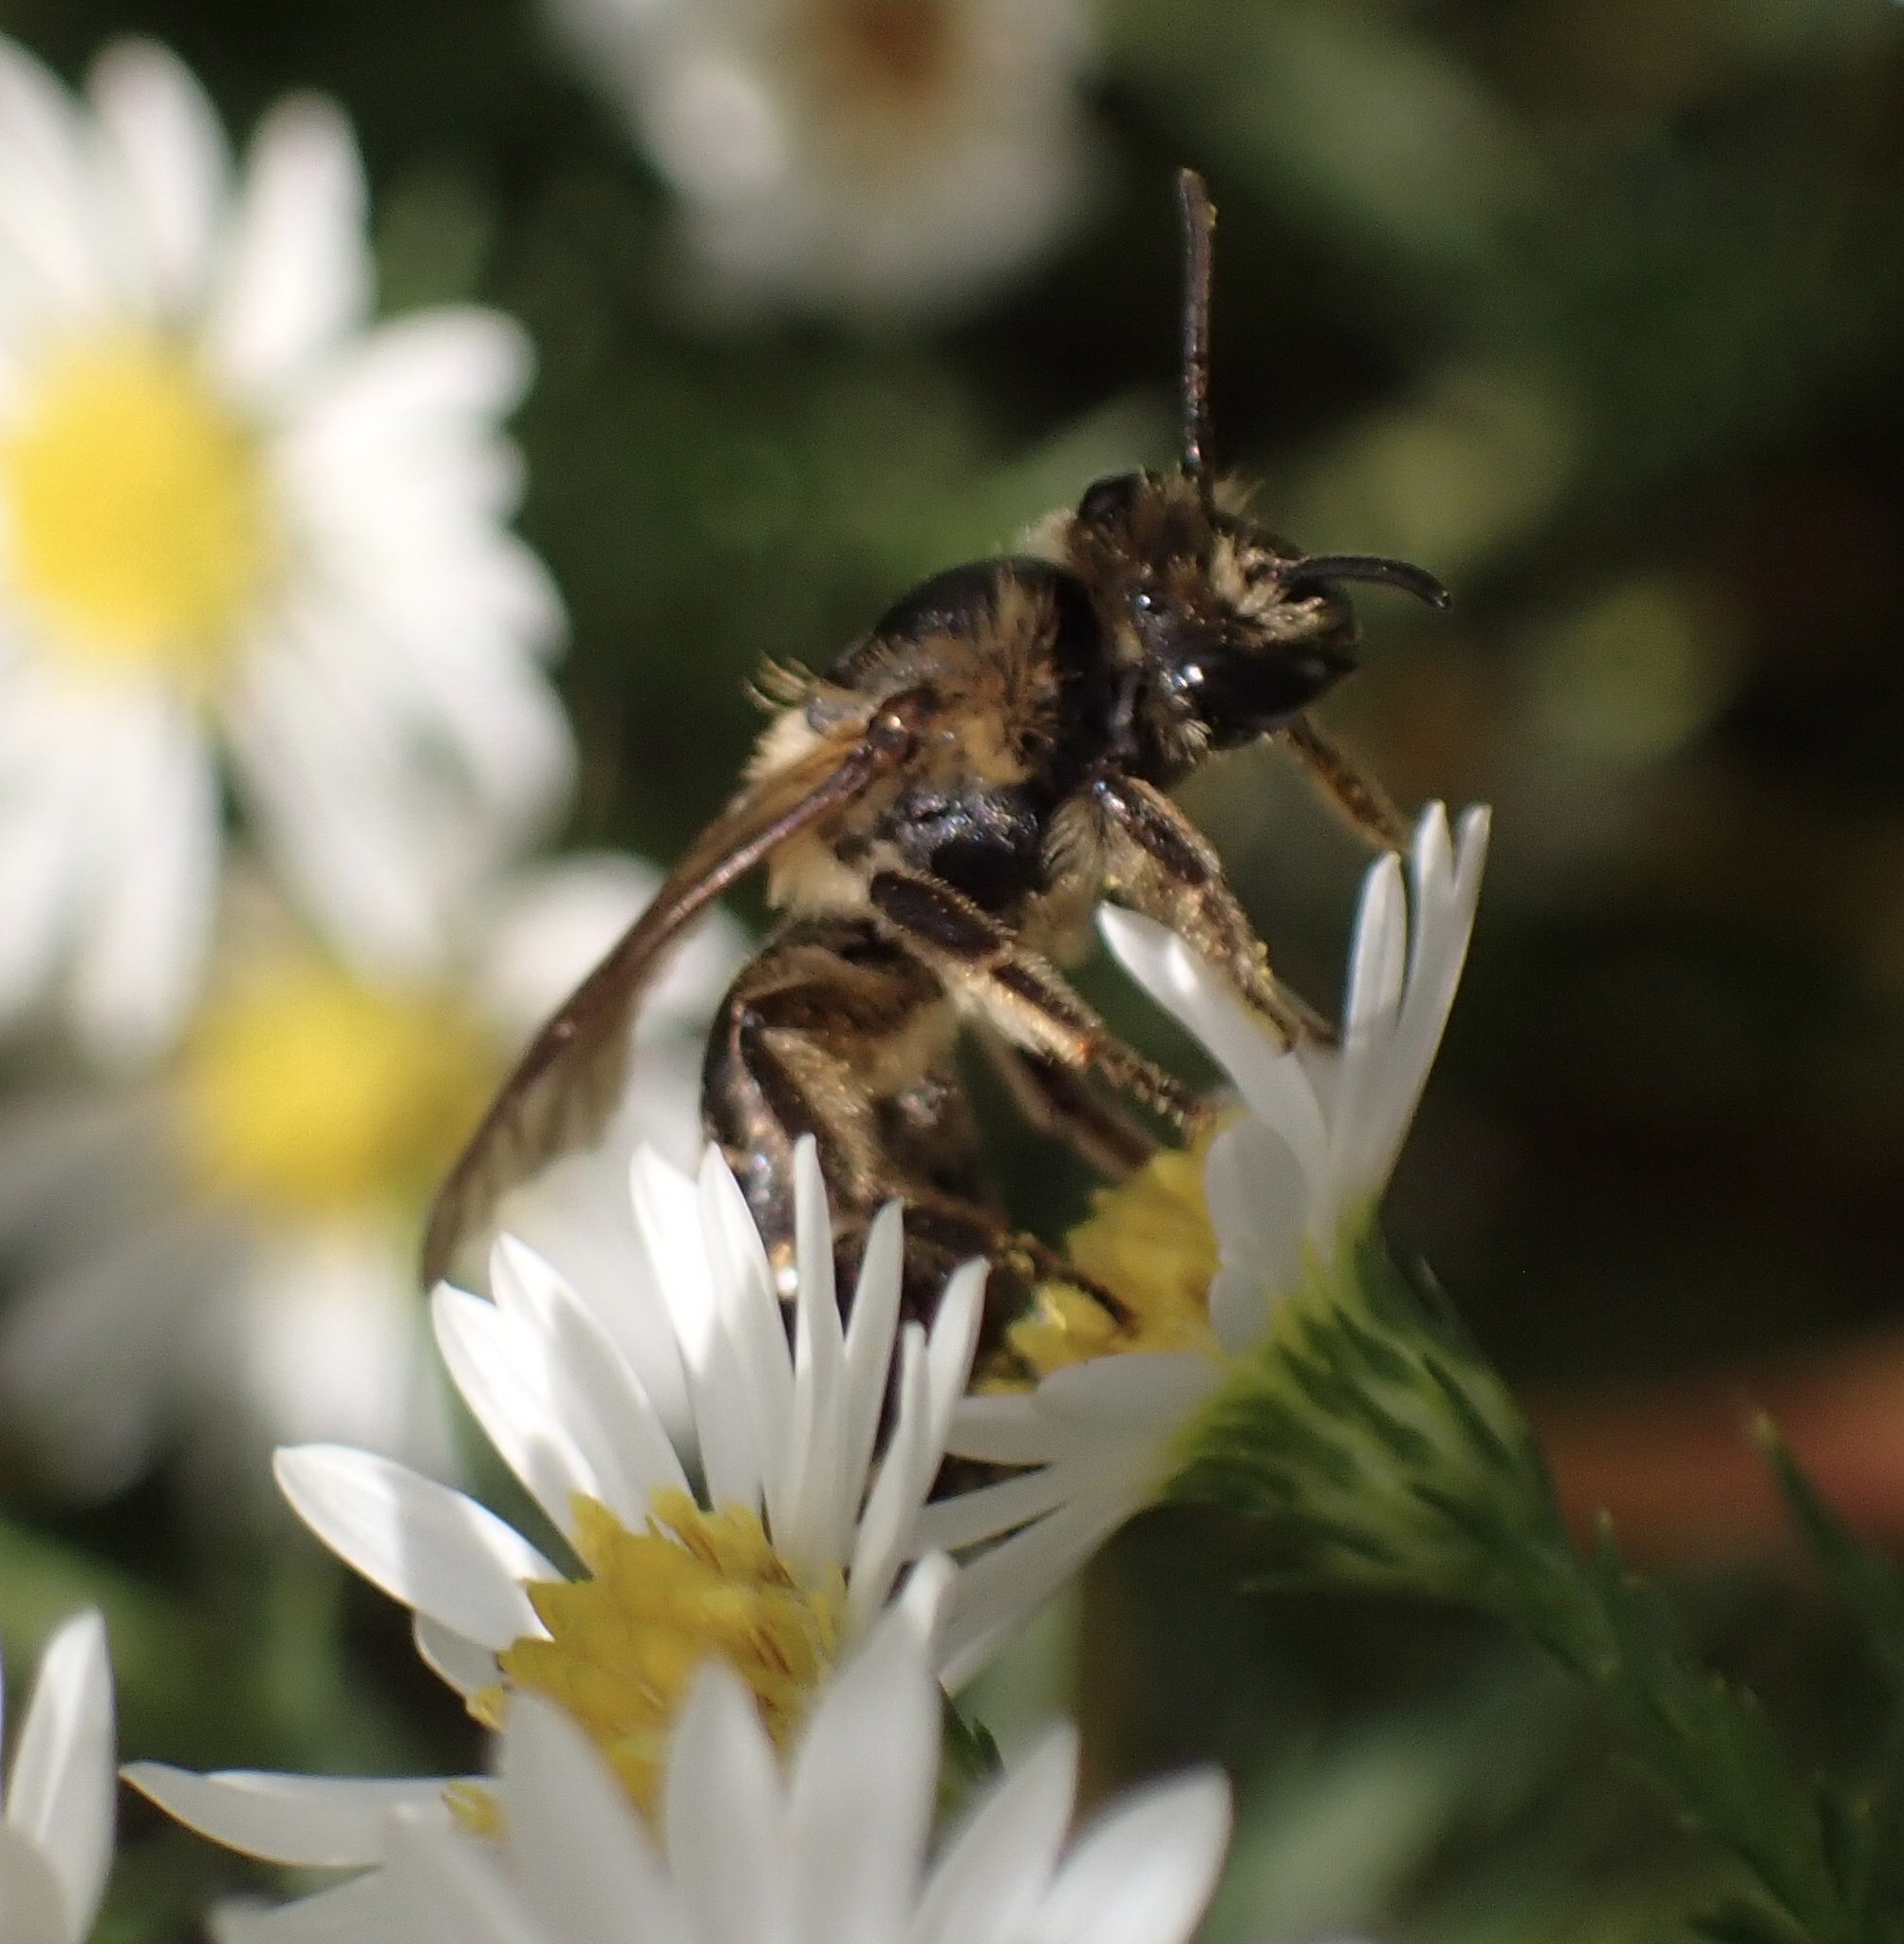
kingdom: Animalia
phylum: Arthropoda
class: Insecta
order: Hymenoptera
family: Colletidae
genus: Colletes
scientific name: Colletes hederae
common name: Ivy bee
